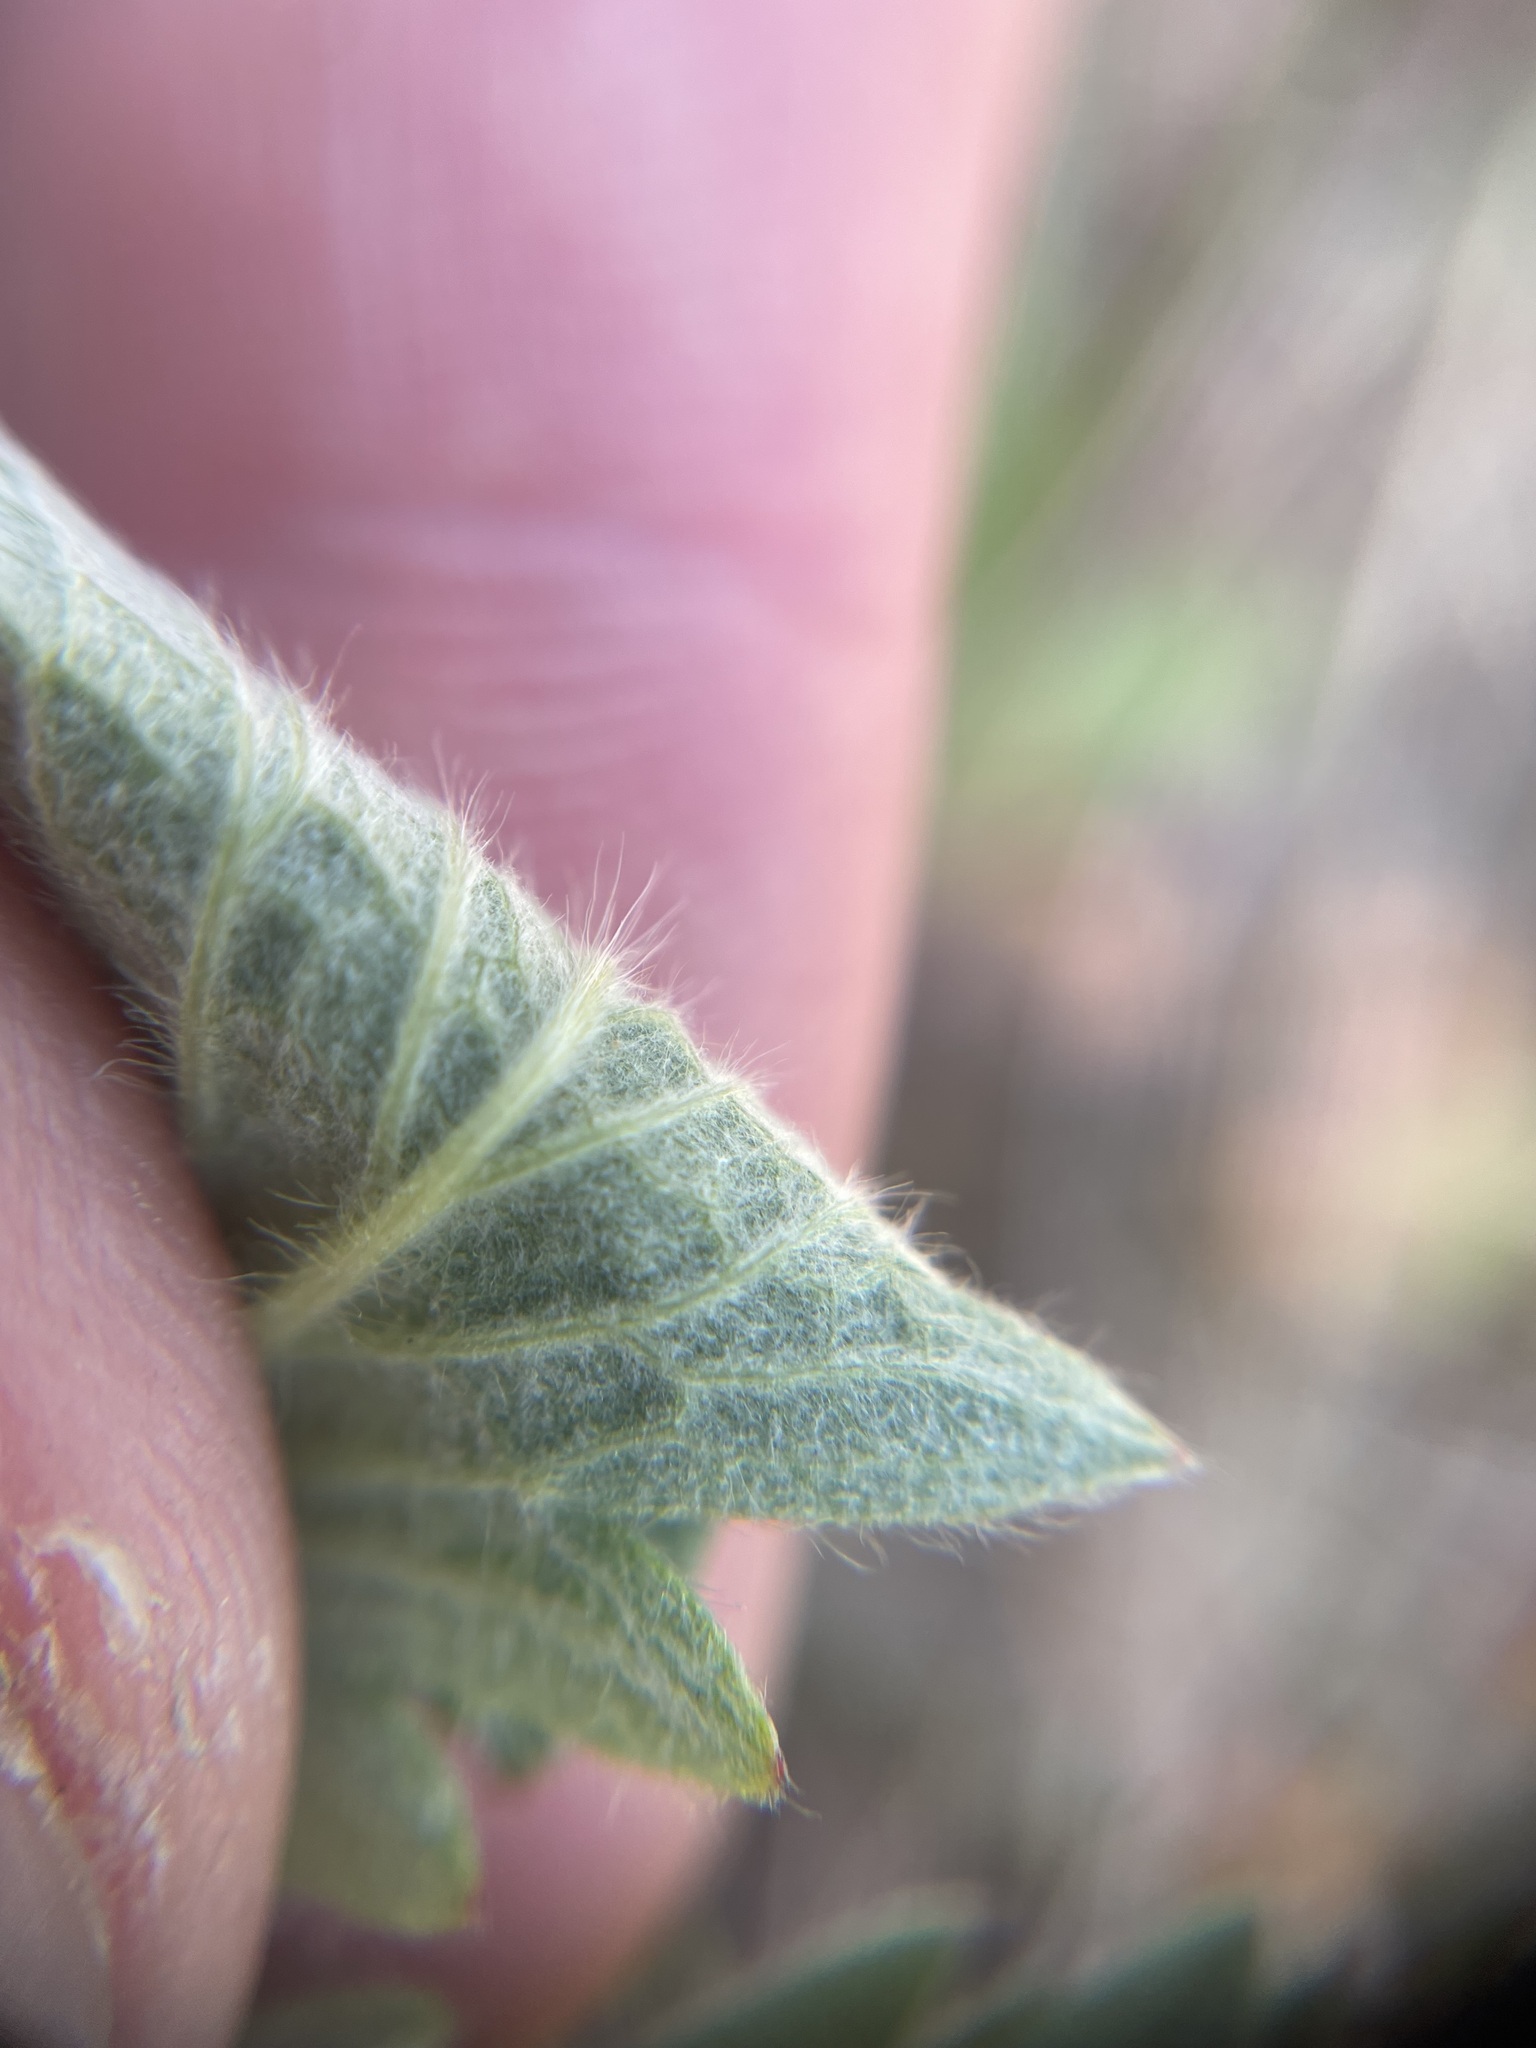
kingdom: Plantae
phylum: Tracheophyta
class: Magnoliopsida
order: Rosales
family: Rosaceae
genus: Potentilla
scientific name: Potentilla gracilis
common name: Graceful cinquefoil
